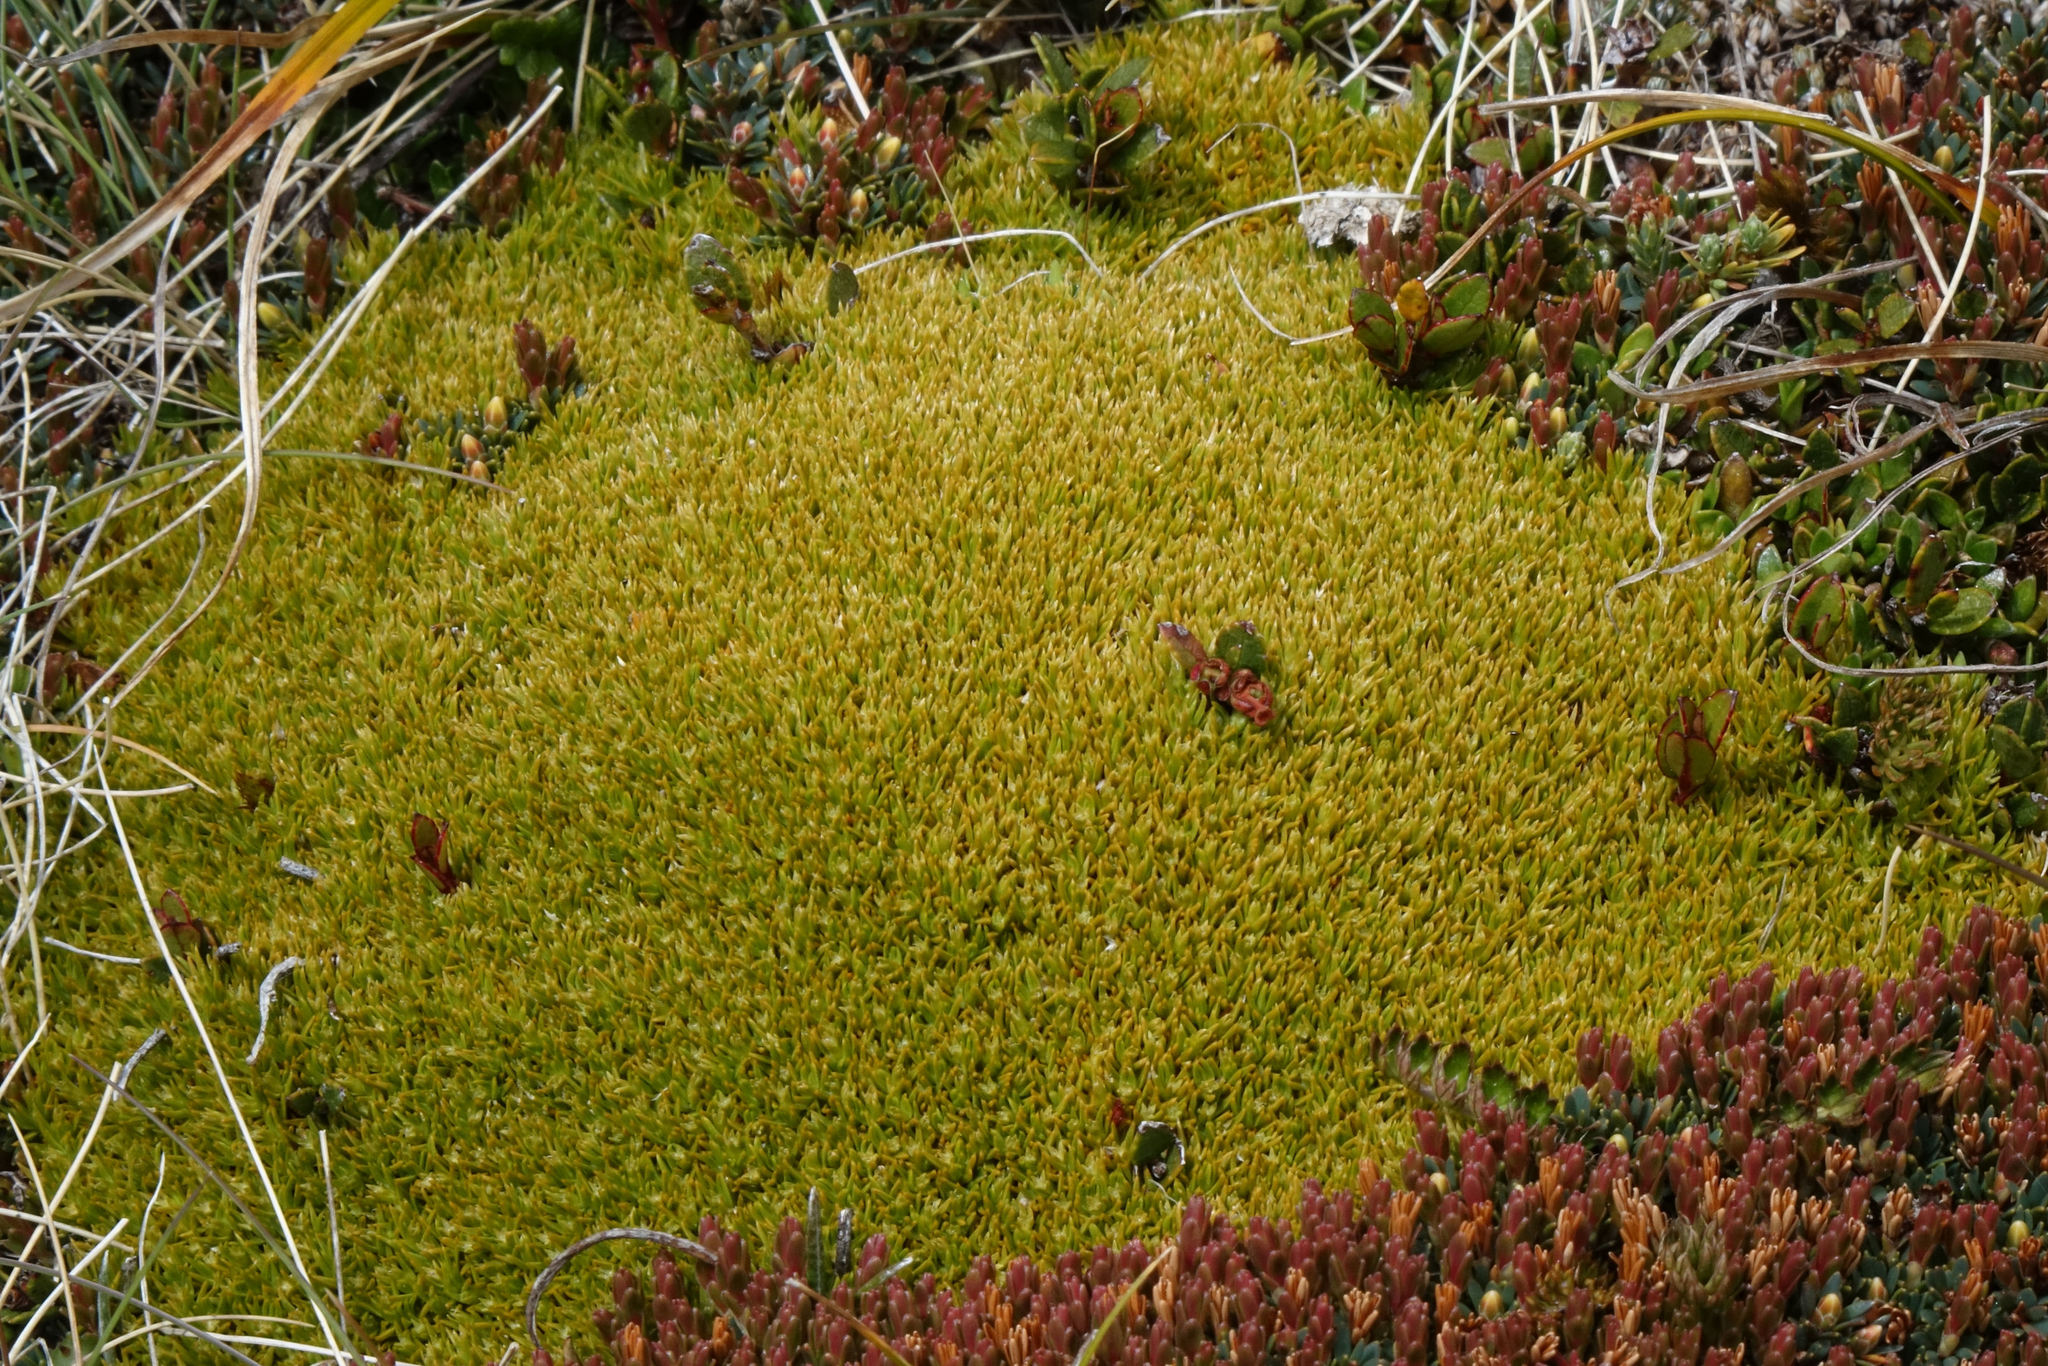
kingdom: Plantae
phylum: Tracheophyta
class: Magnoliopsida
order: Caryophyllales
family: Caryophyllaceae
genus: Scleranthus
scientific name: Scleranthus uniflorus
